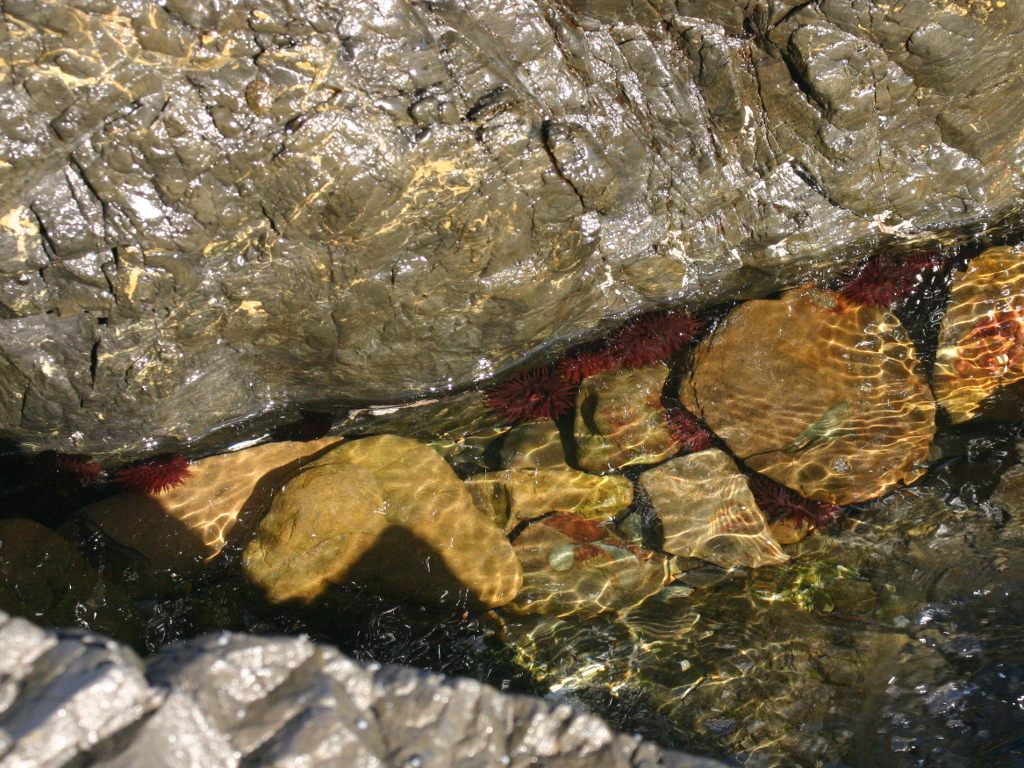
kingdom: Animalia
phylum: Cnidaria
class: Anthozoa
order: Actiniaria
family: Actiniidae
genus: Actinia
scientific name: Actinia tenebrosa
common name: Waratah anemone
